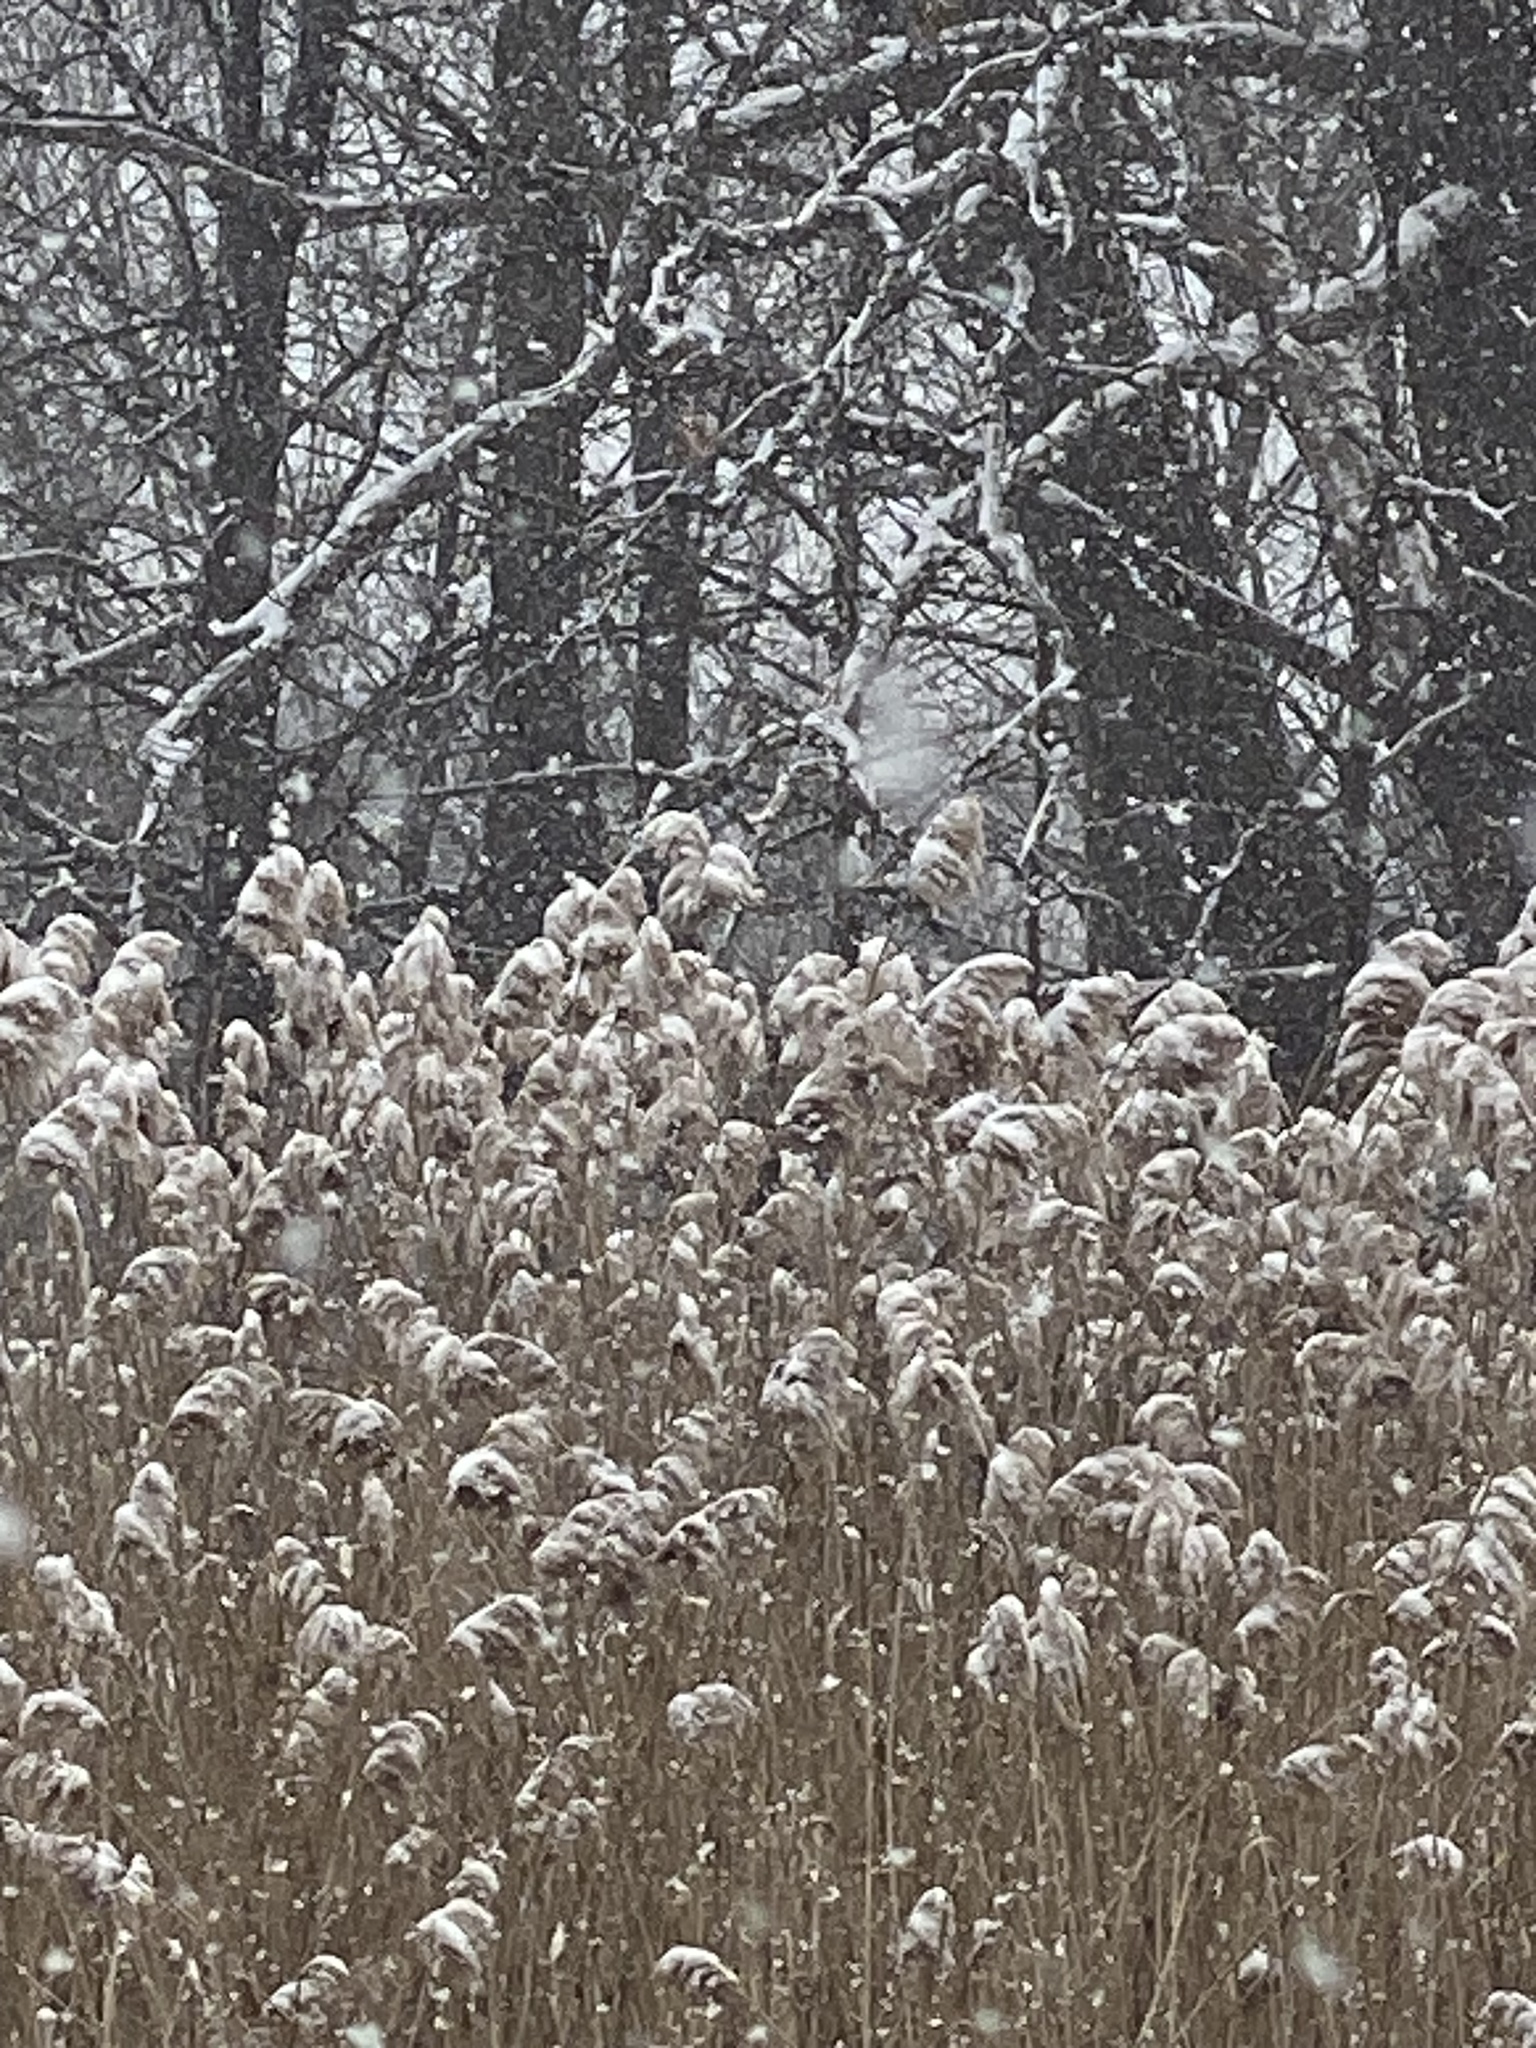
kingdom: Plantae
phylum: Tracheophyta
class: Liliopsida
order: Poales
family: Poaceae
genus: Phragmites
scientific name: Phragmites australis
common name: Common reed
